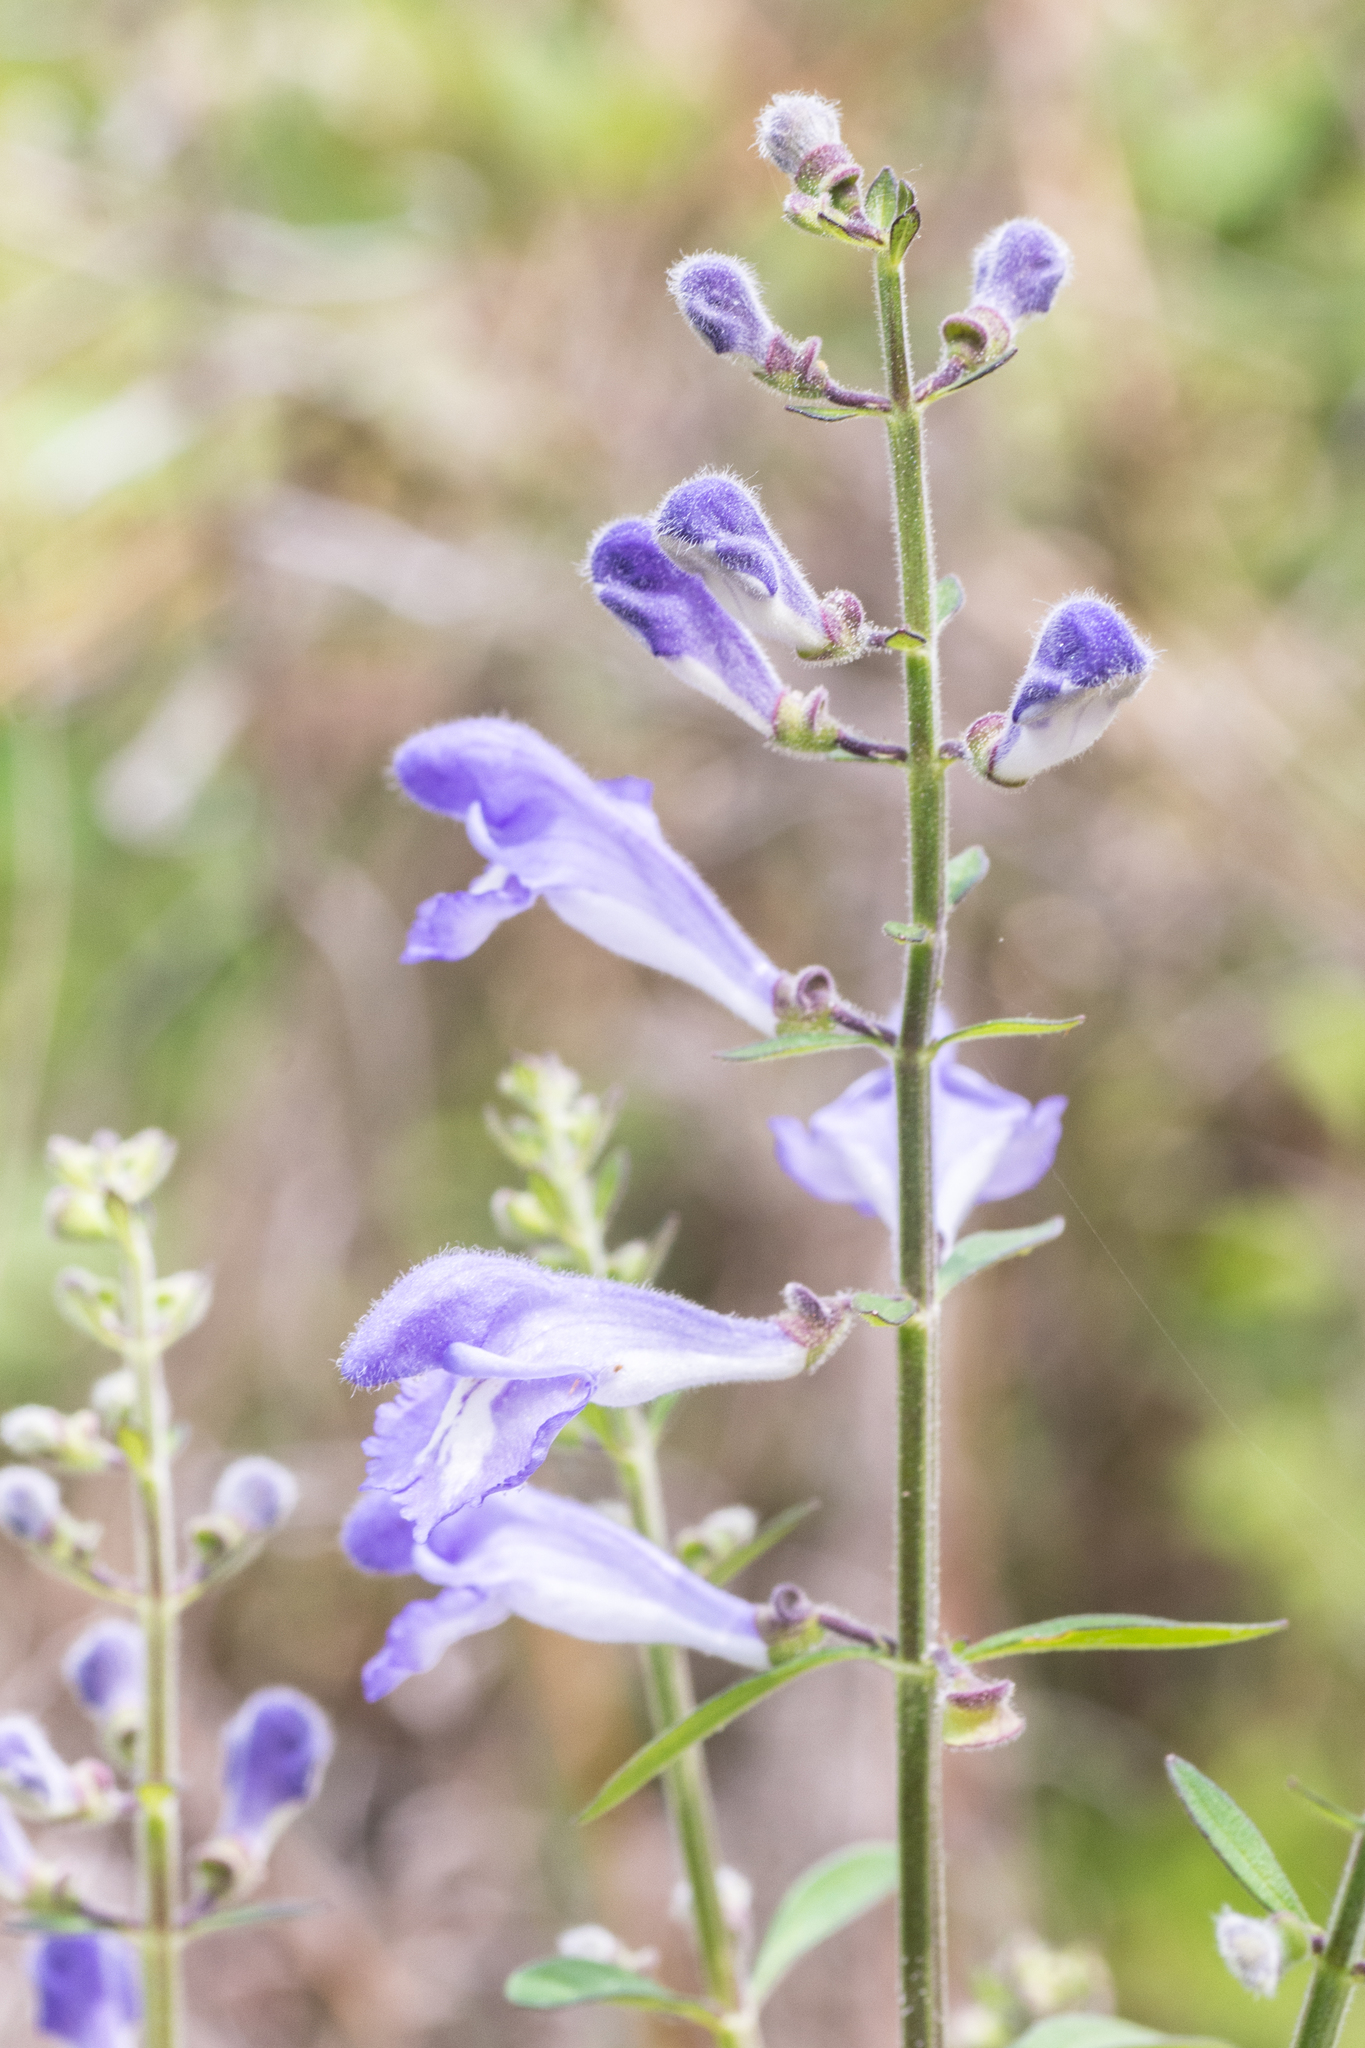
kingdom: Plantae
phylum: Tracheophyta
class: Magnoliopsida
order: Lamiales
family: Lamiaceae
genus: Scutellaria
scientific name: Scutellaria integrifolia
